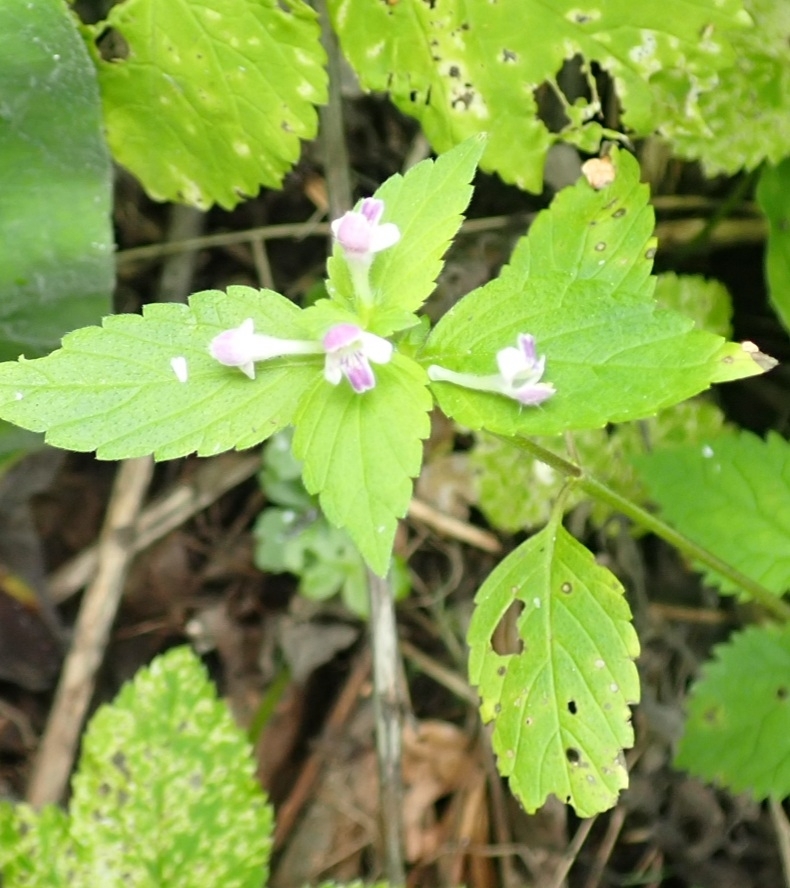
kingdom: Plantae
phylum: Tracheophyta
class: Magnoliopsida
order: Lamiales
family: Lamiaceae
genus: Galeopsis
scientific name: Galeopsis bifida
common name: Bifid hemp-nettle
